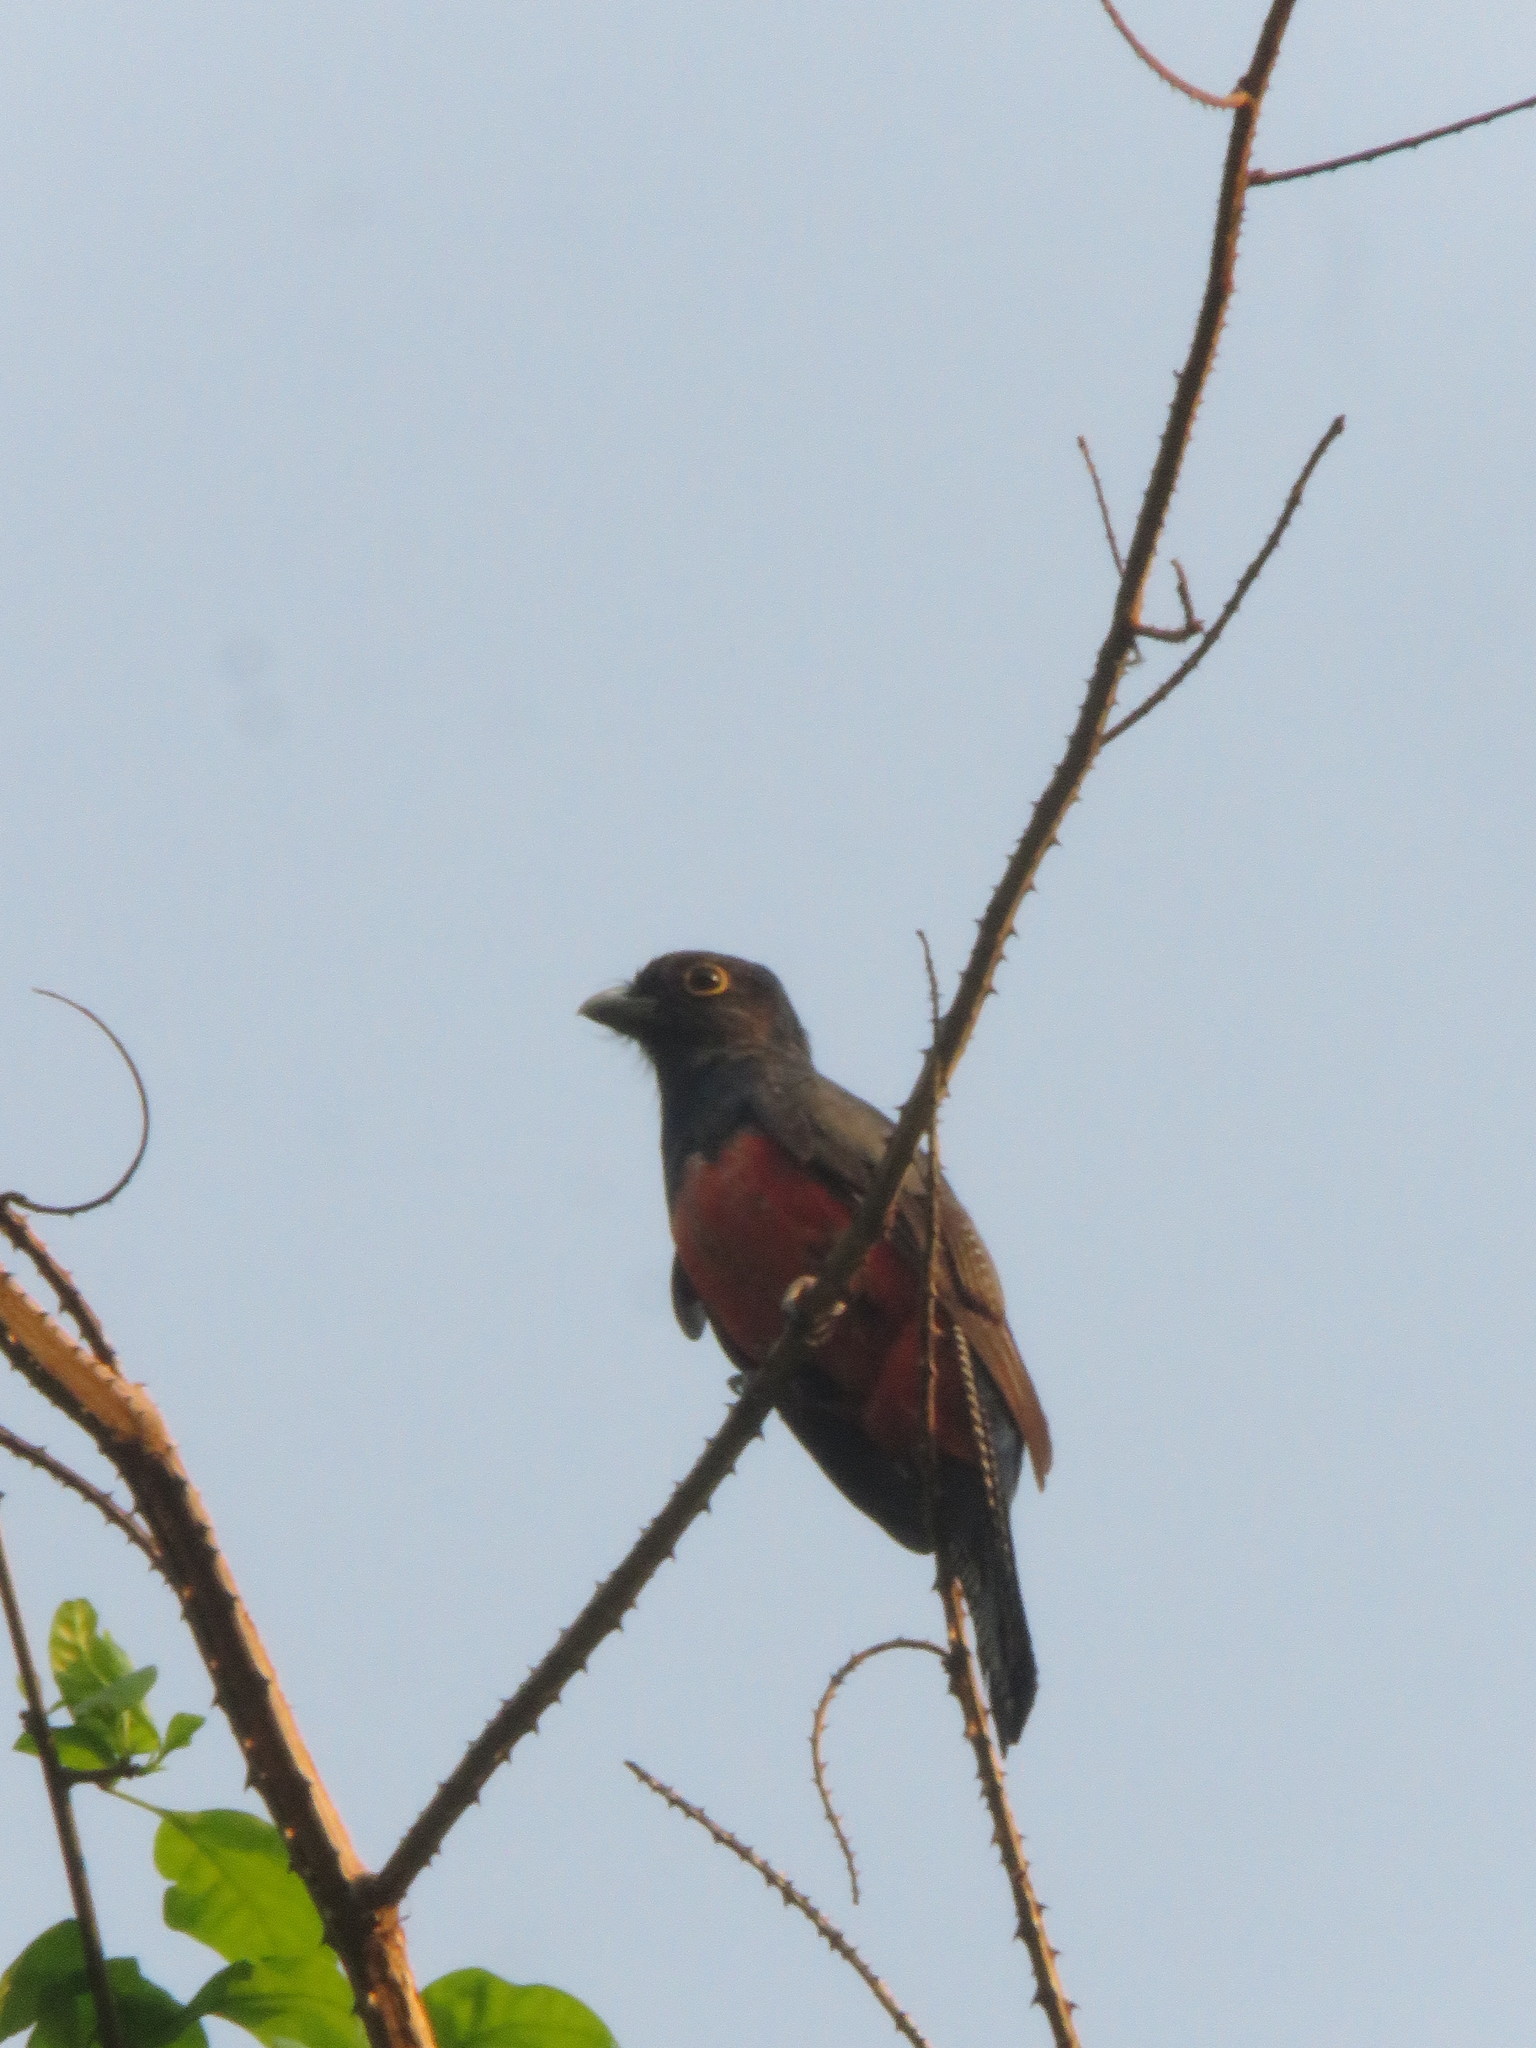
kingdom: Animalia
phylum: Chordata
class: Aves
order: Trogoniformes
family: Trogonidae
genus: Trogon
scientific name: Trogon curucui
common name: Blue-crowned trogon
